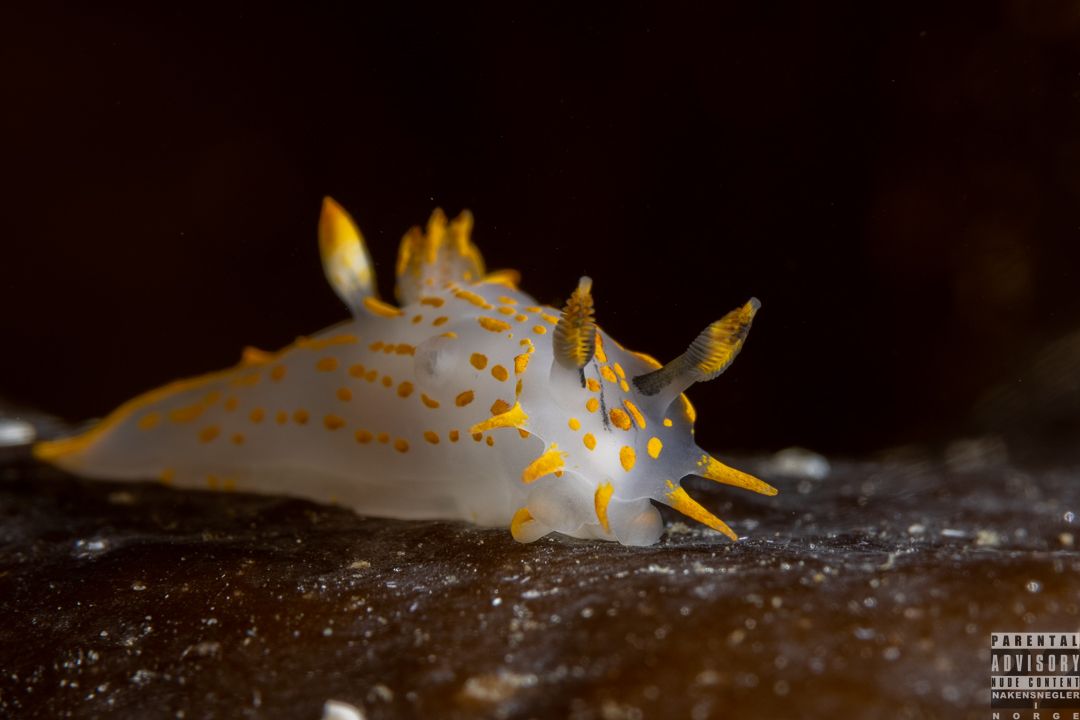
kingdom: Animalia
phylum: Mollusca
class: Gastropoda
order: Nudibranchia
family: Polyceridae
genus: Polycera
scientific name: Polycera quadrilineata
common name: Four-striped polycera
